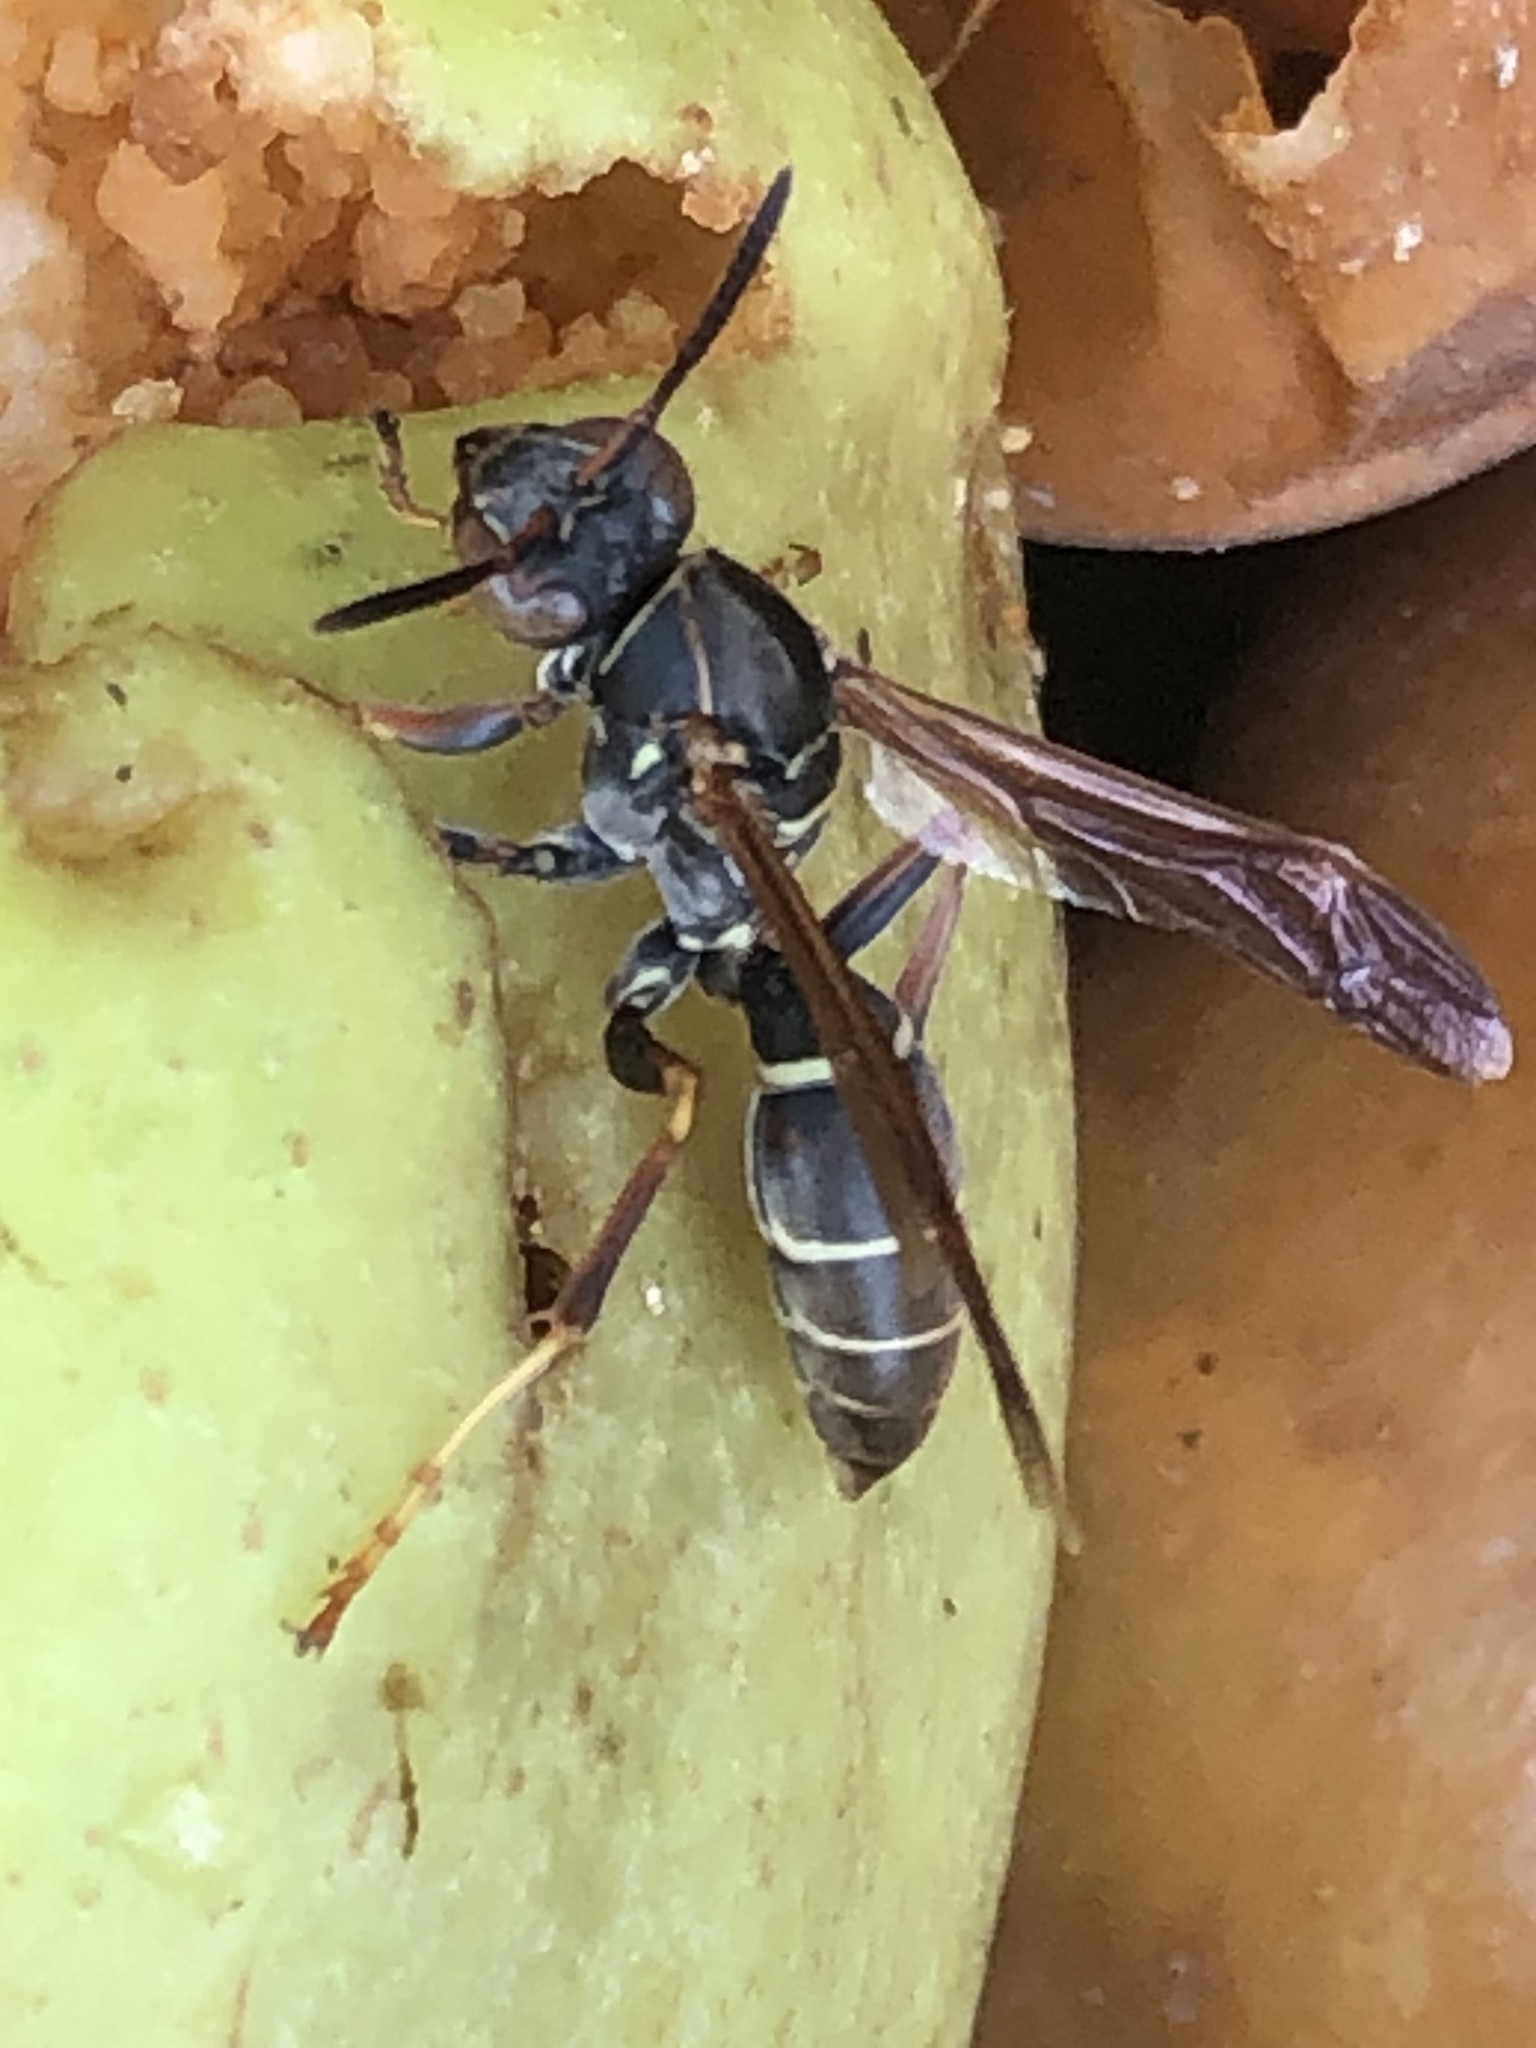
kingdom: Animalia
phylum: Arthropoda
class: Insecta
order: Hymenoptera
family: Eumenidae
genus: Polistes
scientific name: Polistes fuscatus
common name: Dark paper wasp
